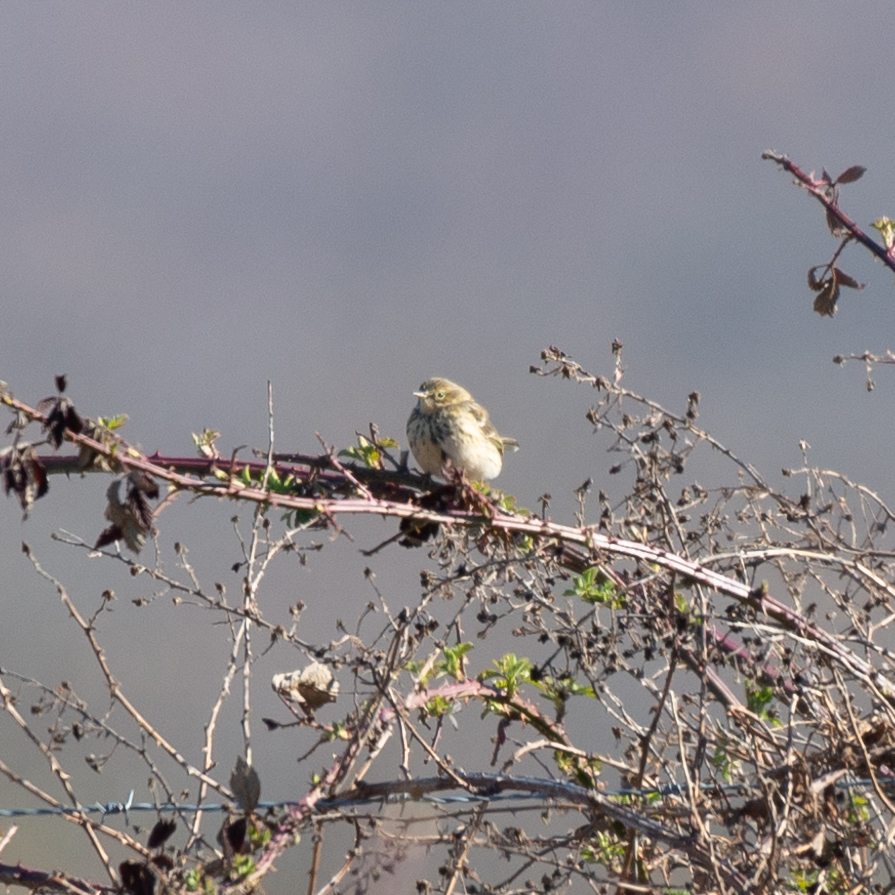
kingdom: Animalia
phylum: Chordata
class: Aves
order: Passeriformes
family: Motacillidae
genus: Anthus
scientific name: Anthus pratensis
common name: Meadow pipit
